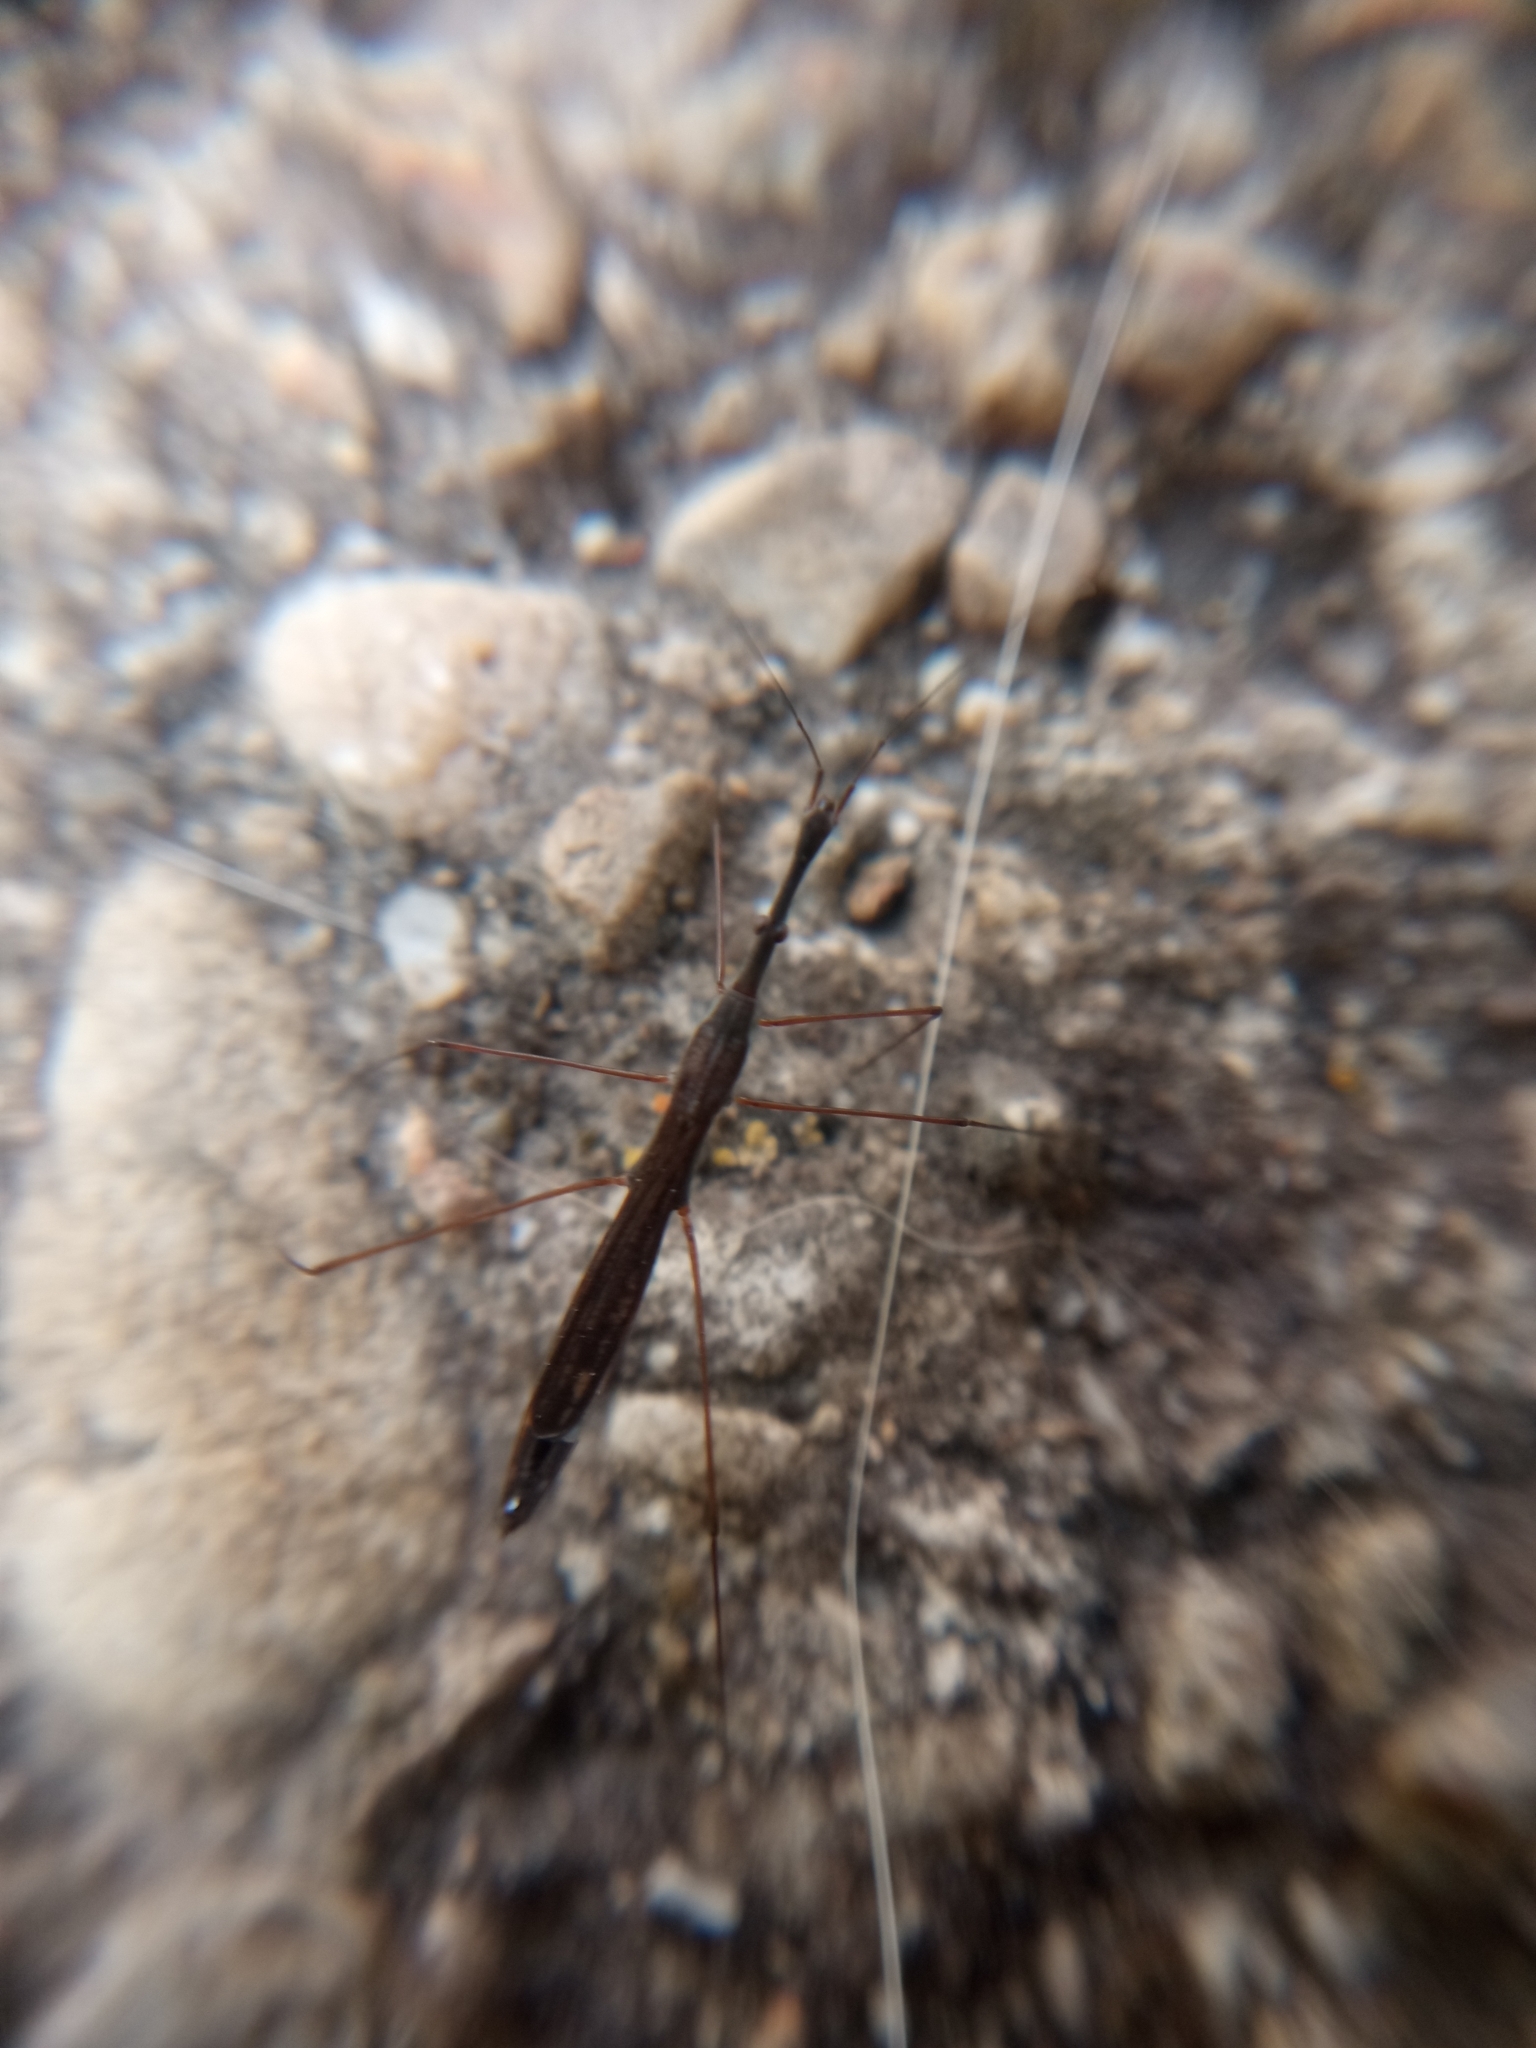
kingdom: Animalia
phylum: Arthropoda
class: Insecta
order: Hemiptera
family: Hydrometridae
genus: Hydrometra
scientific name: Hydrometra stagnorum
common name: Water measurer
